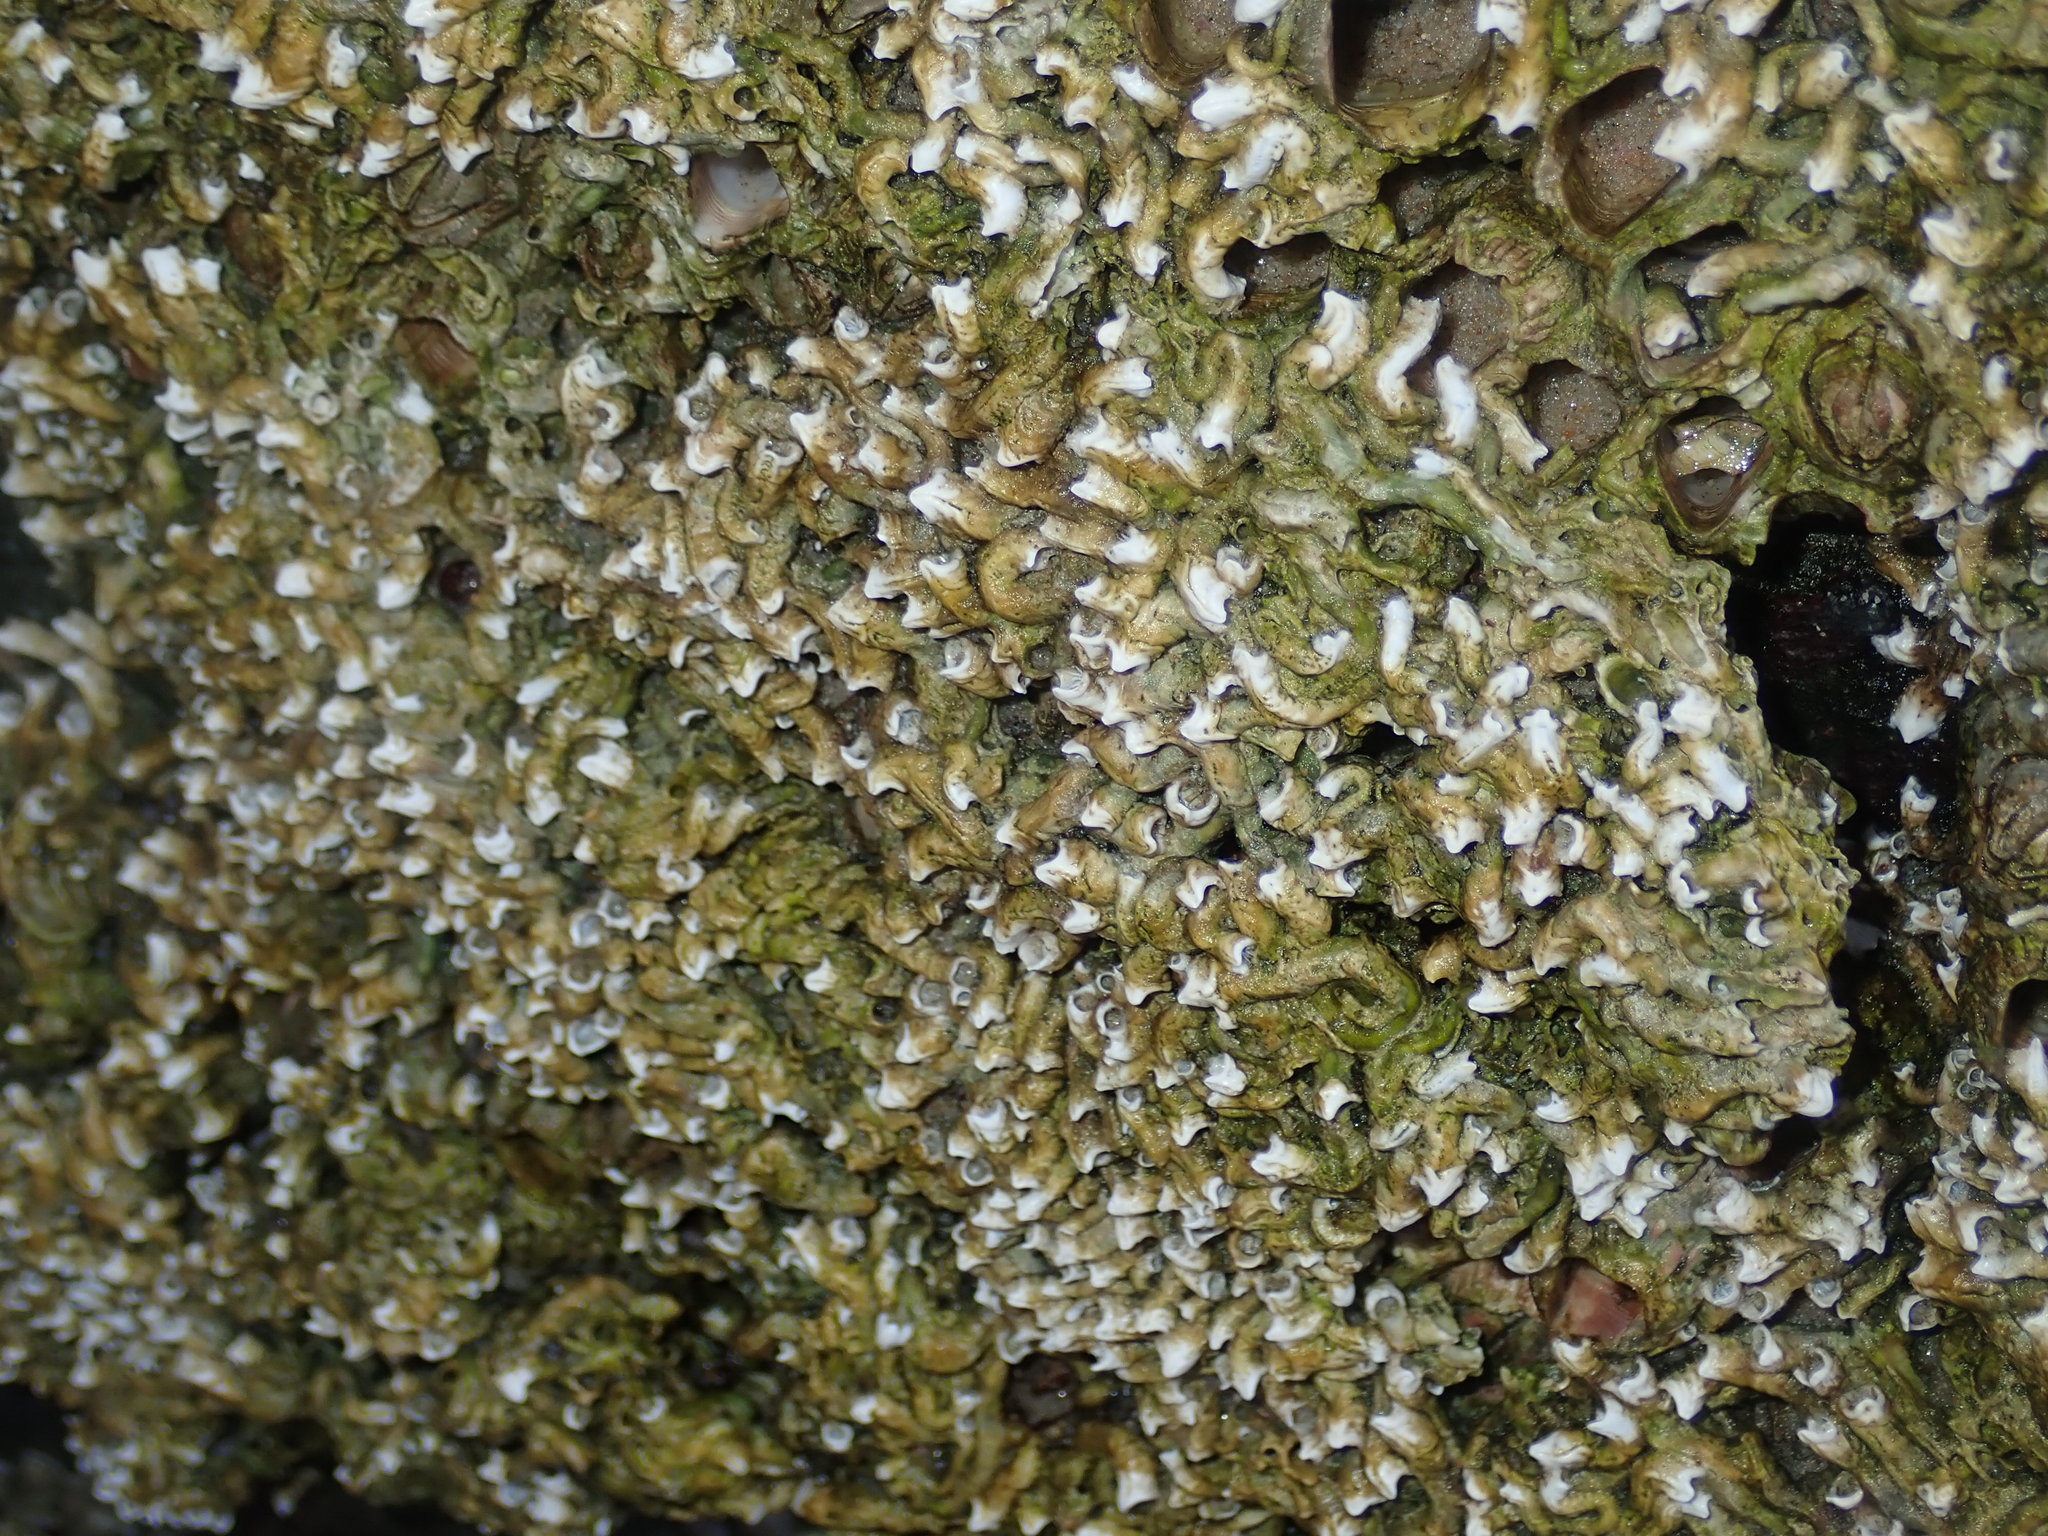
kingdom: Animalia
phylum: Annelida
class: Polychaeta
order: Sabellida
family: Serpulidae
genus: Galeolaria
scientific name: Galeolaria gemineoa
